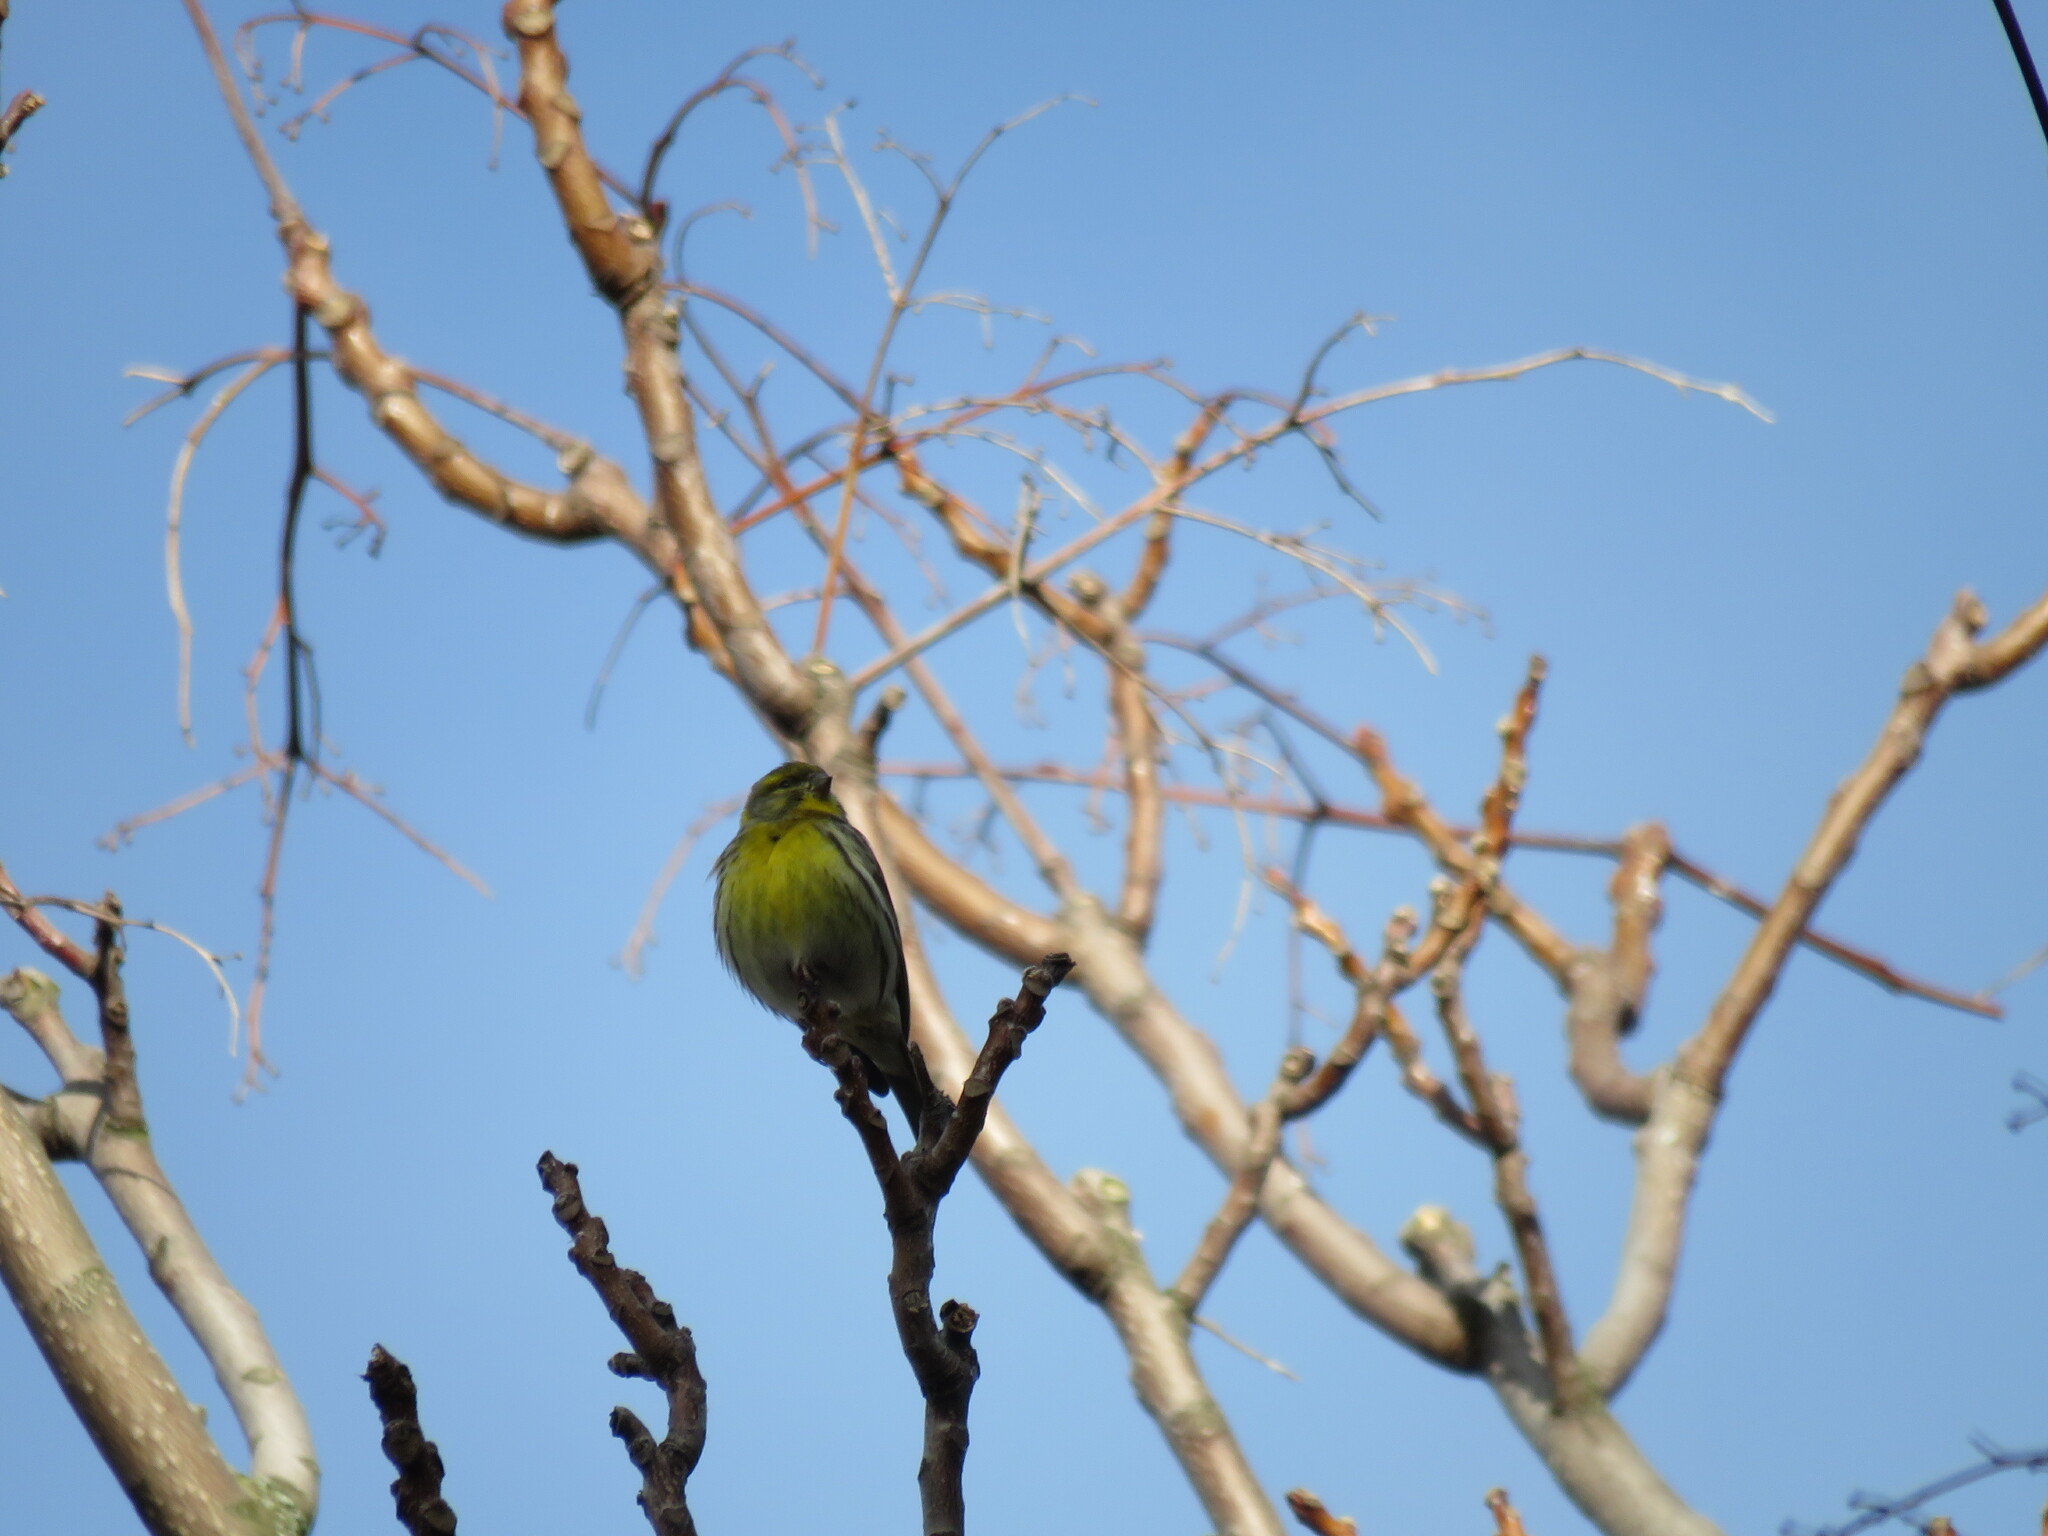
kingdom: Animalia
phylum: Chordata
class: Aves
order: Passeriformes
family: Fringillidae
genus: Serinus
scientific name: Serinus serinus
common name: European serin
